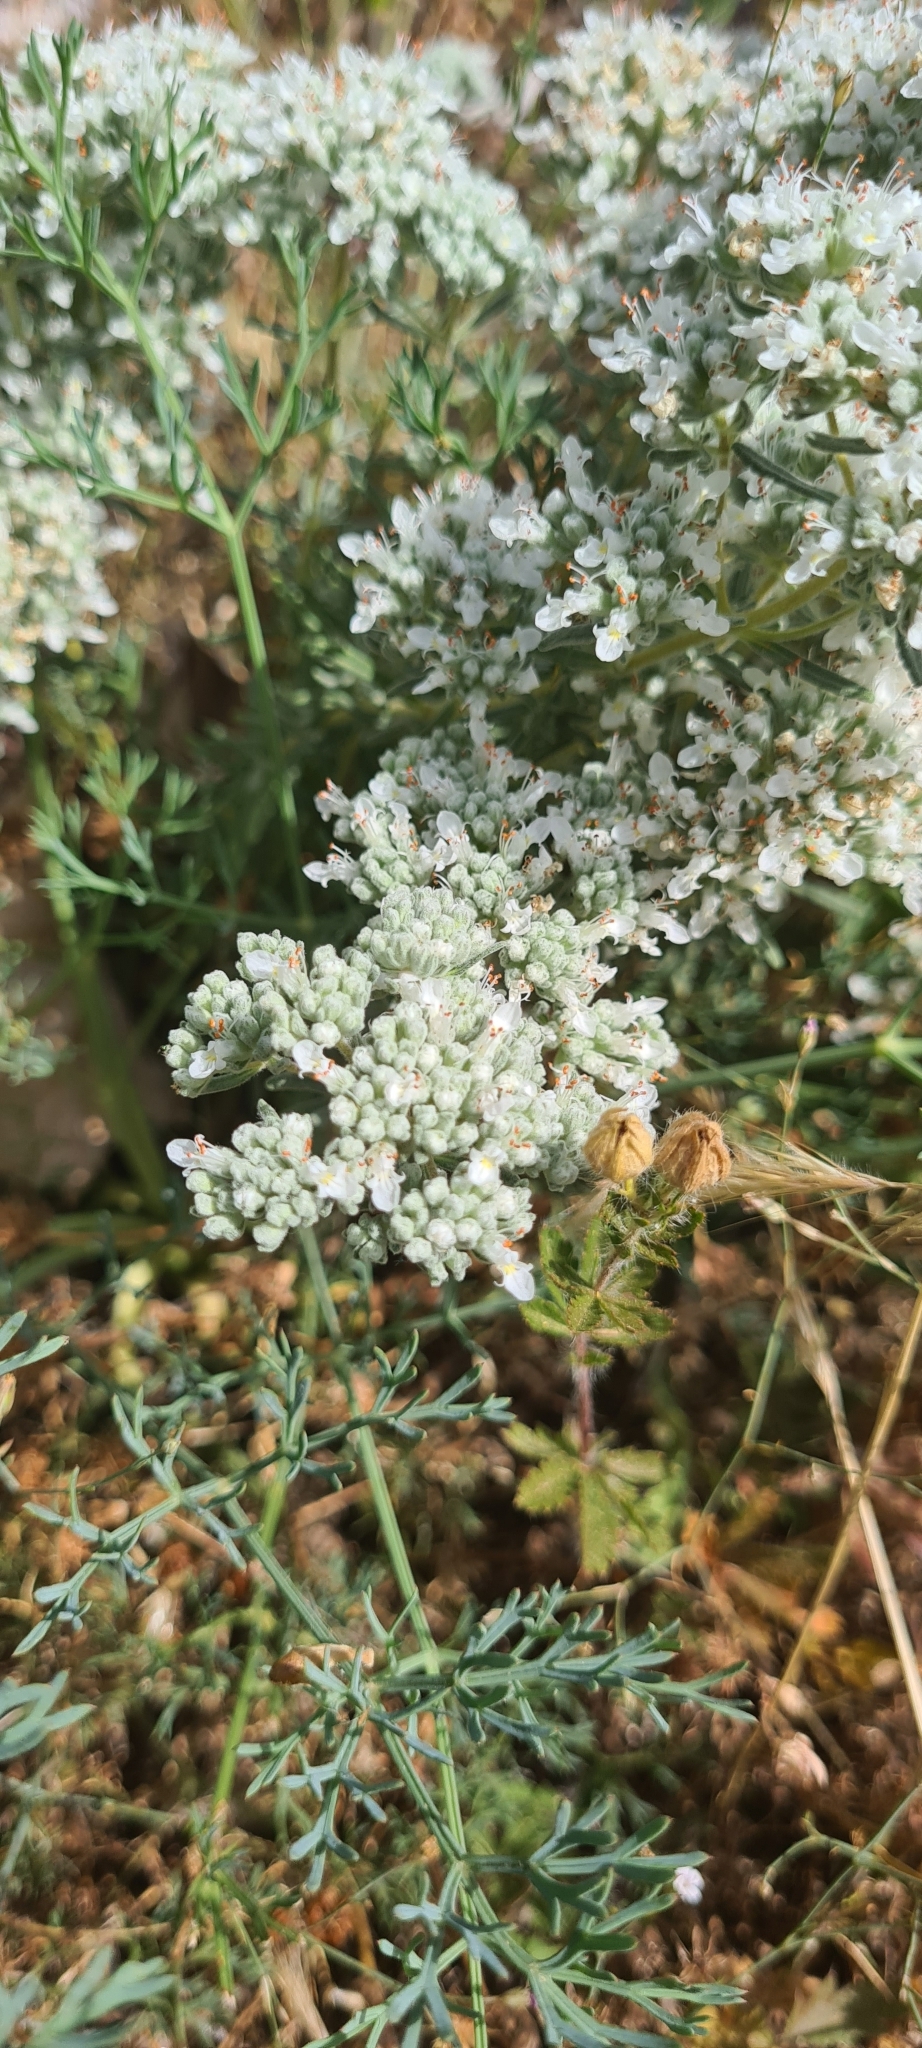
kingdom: Plantae
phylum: Tracheophyta
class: Magnoliopsida
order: Lamiales
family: Lamiaceae
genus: Teucrium
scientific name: Teucrium capitatum
